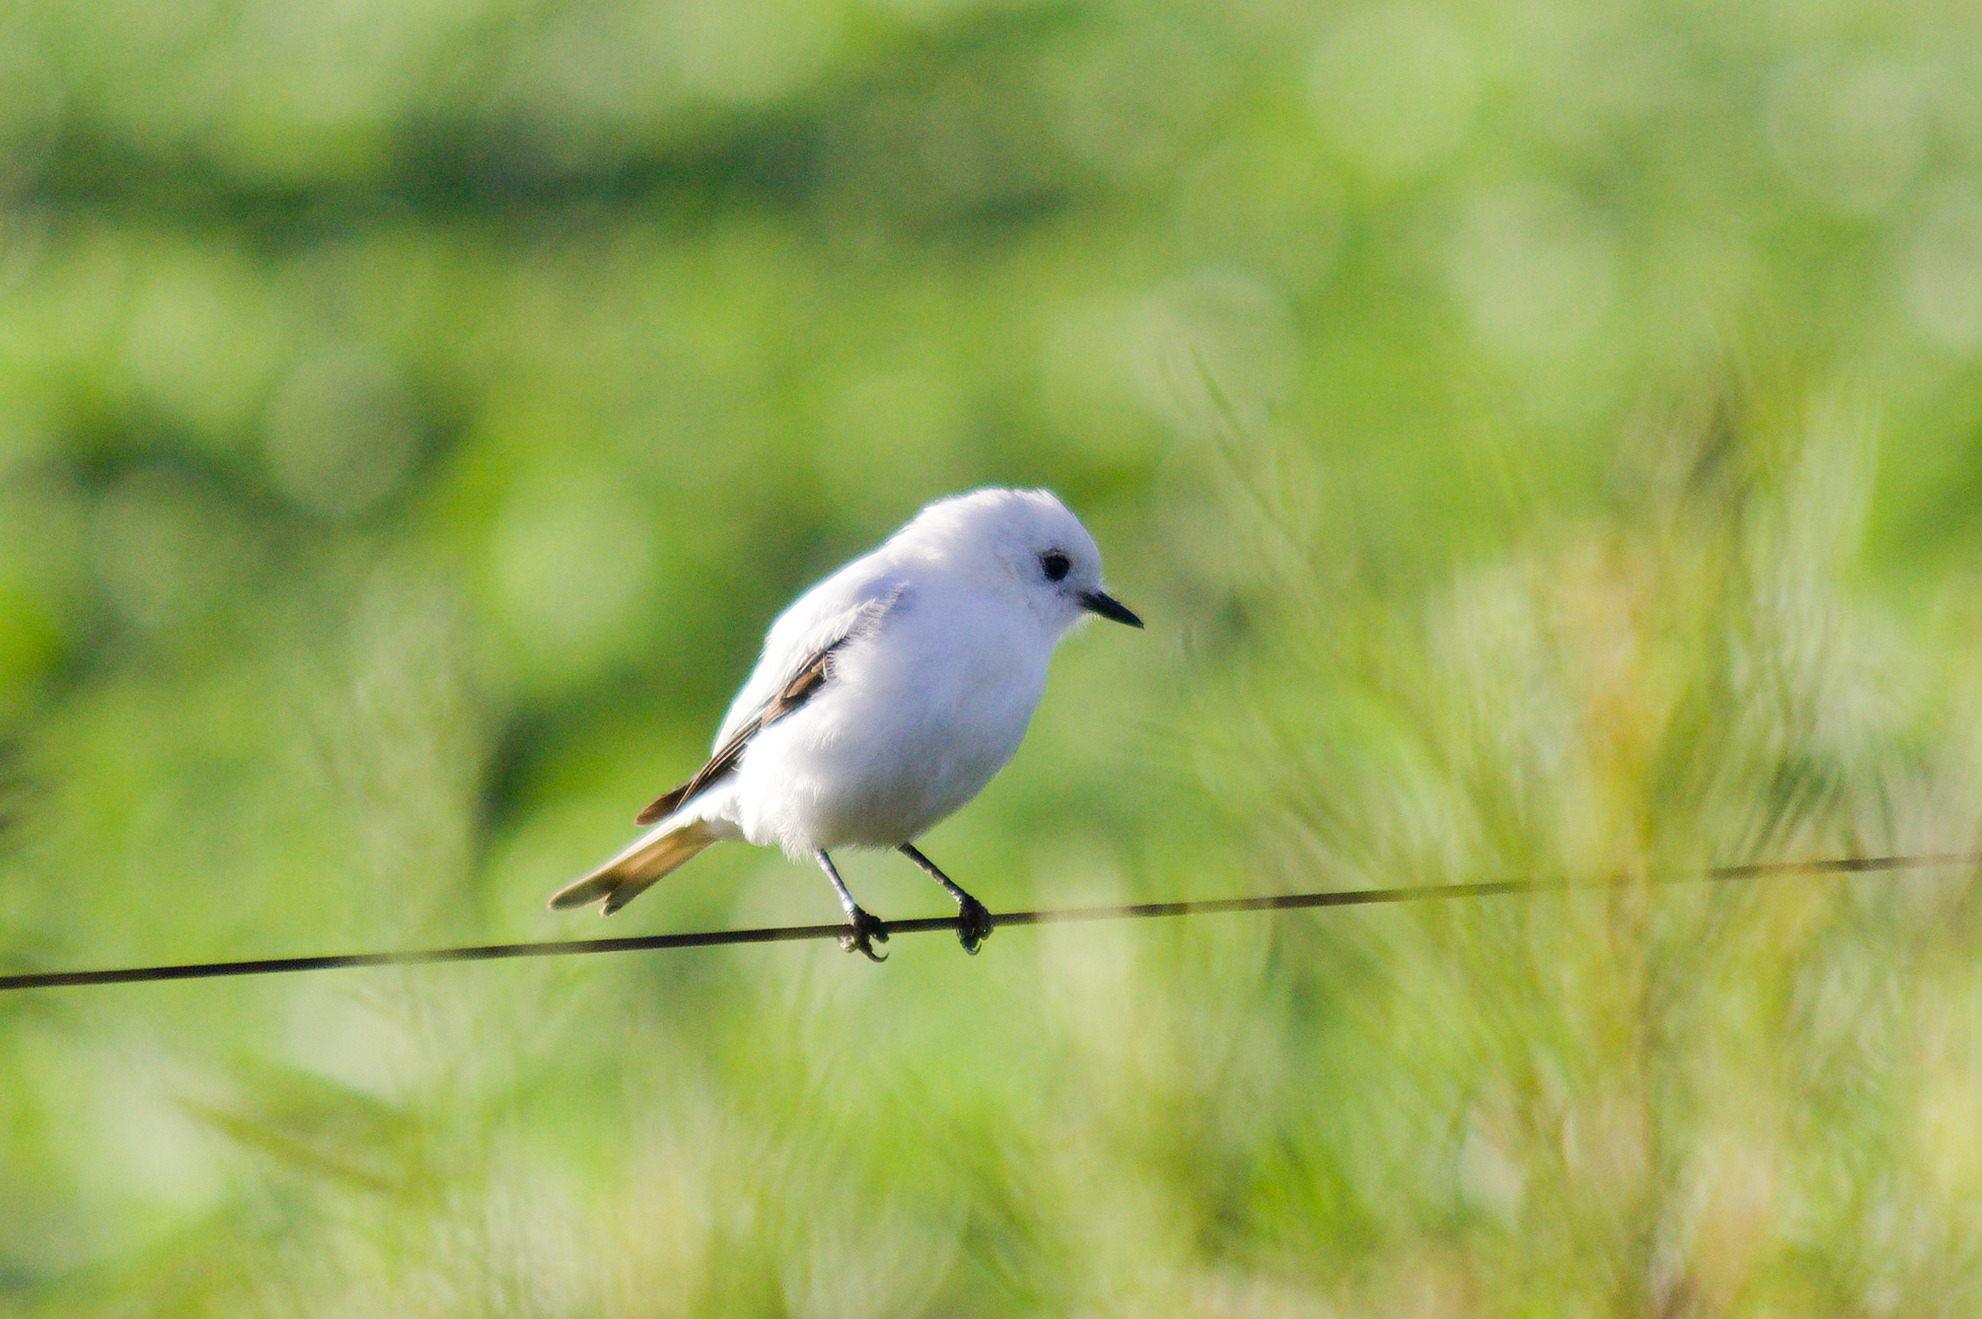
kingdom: Animalia
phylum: Chordata
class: Aves
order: Passeriformes
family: Tyrannidae
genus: Xolmis
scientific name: Xolmis irupero
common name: White monjita
